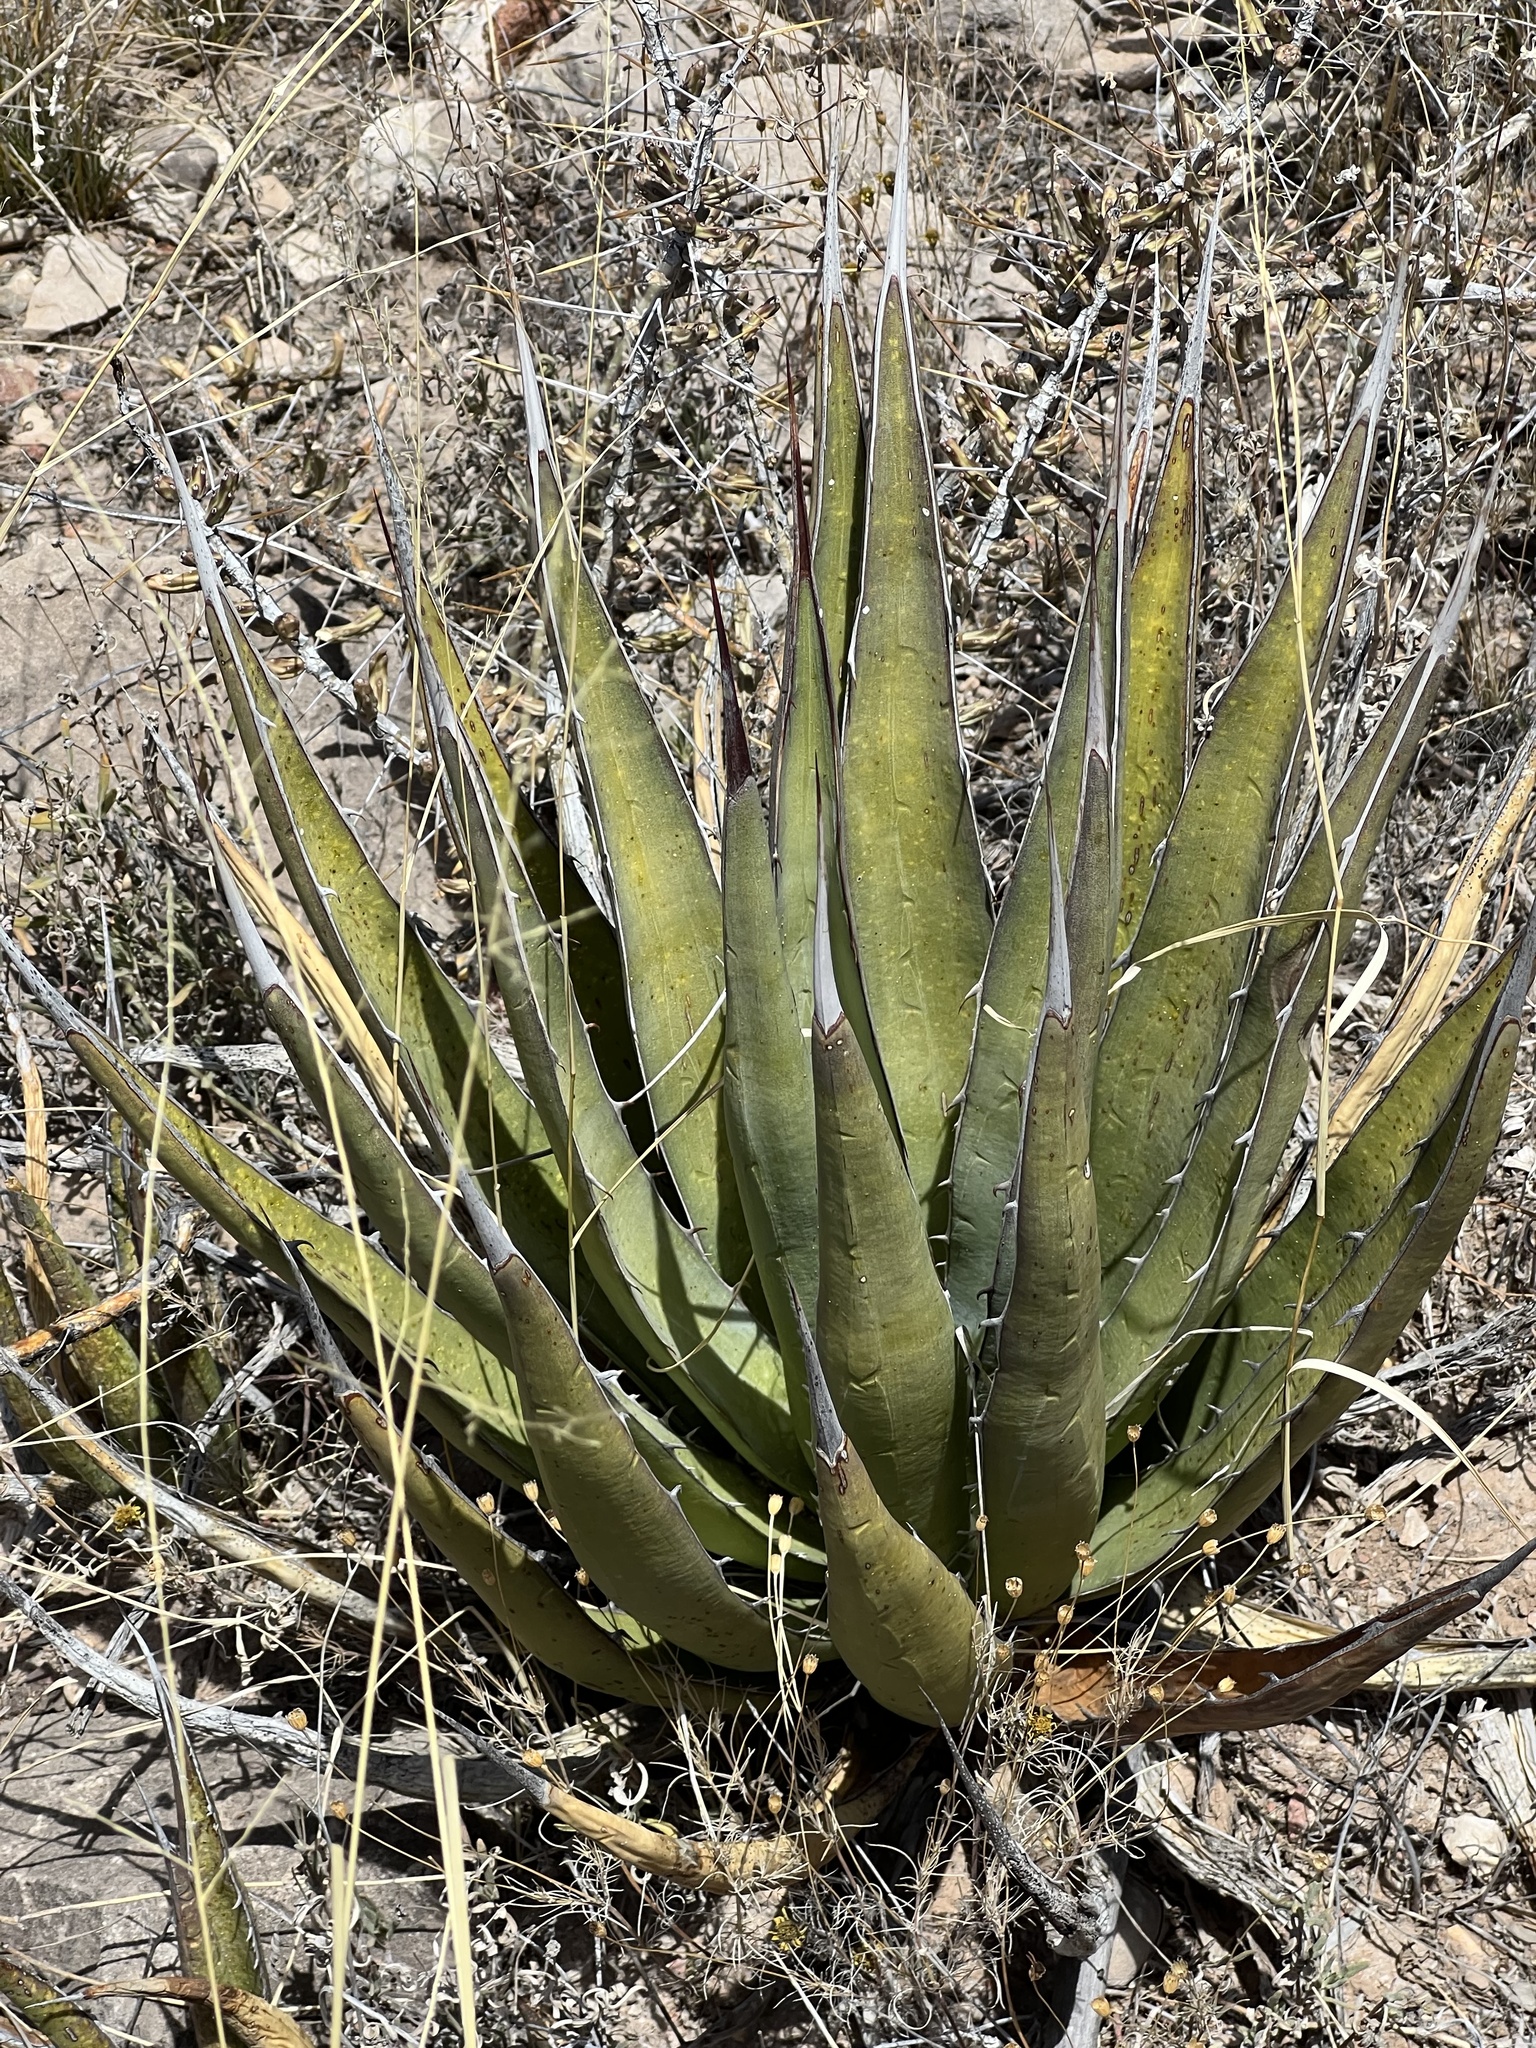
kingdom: Plantae
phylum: Tracheophyta
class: Liliopsida
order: Asparagales
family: Asparagaceae
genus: Agave
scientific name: Agave lechuguilla
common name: Lecheguilla agave
